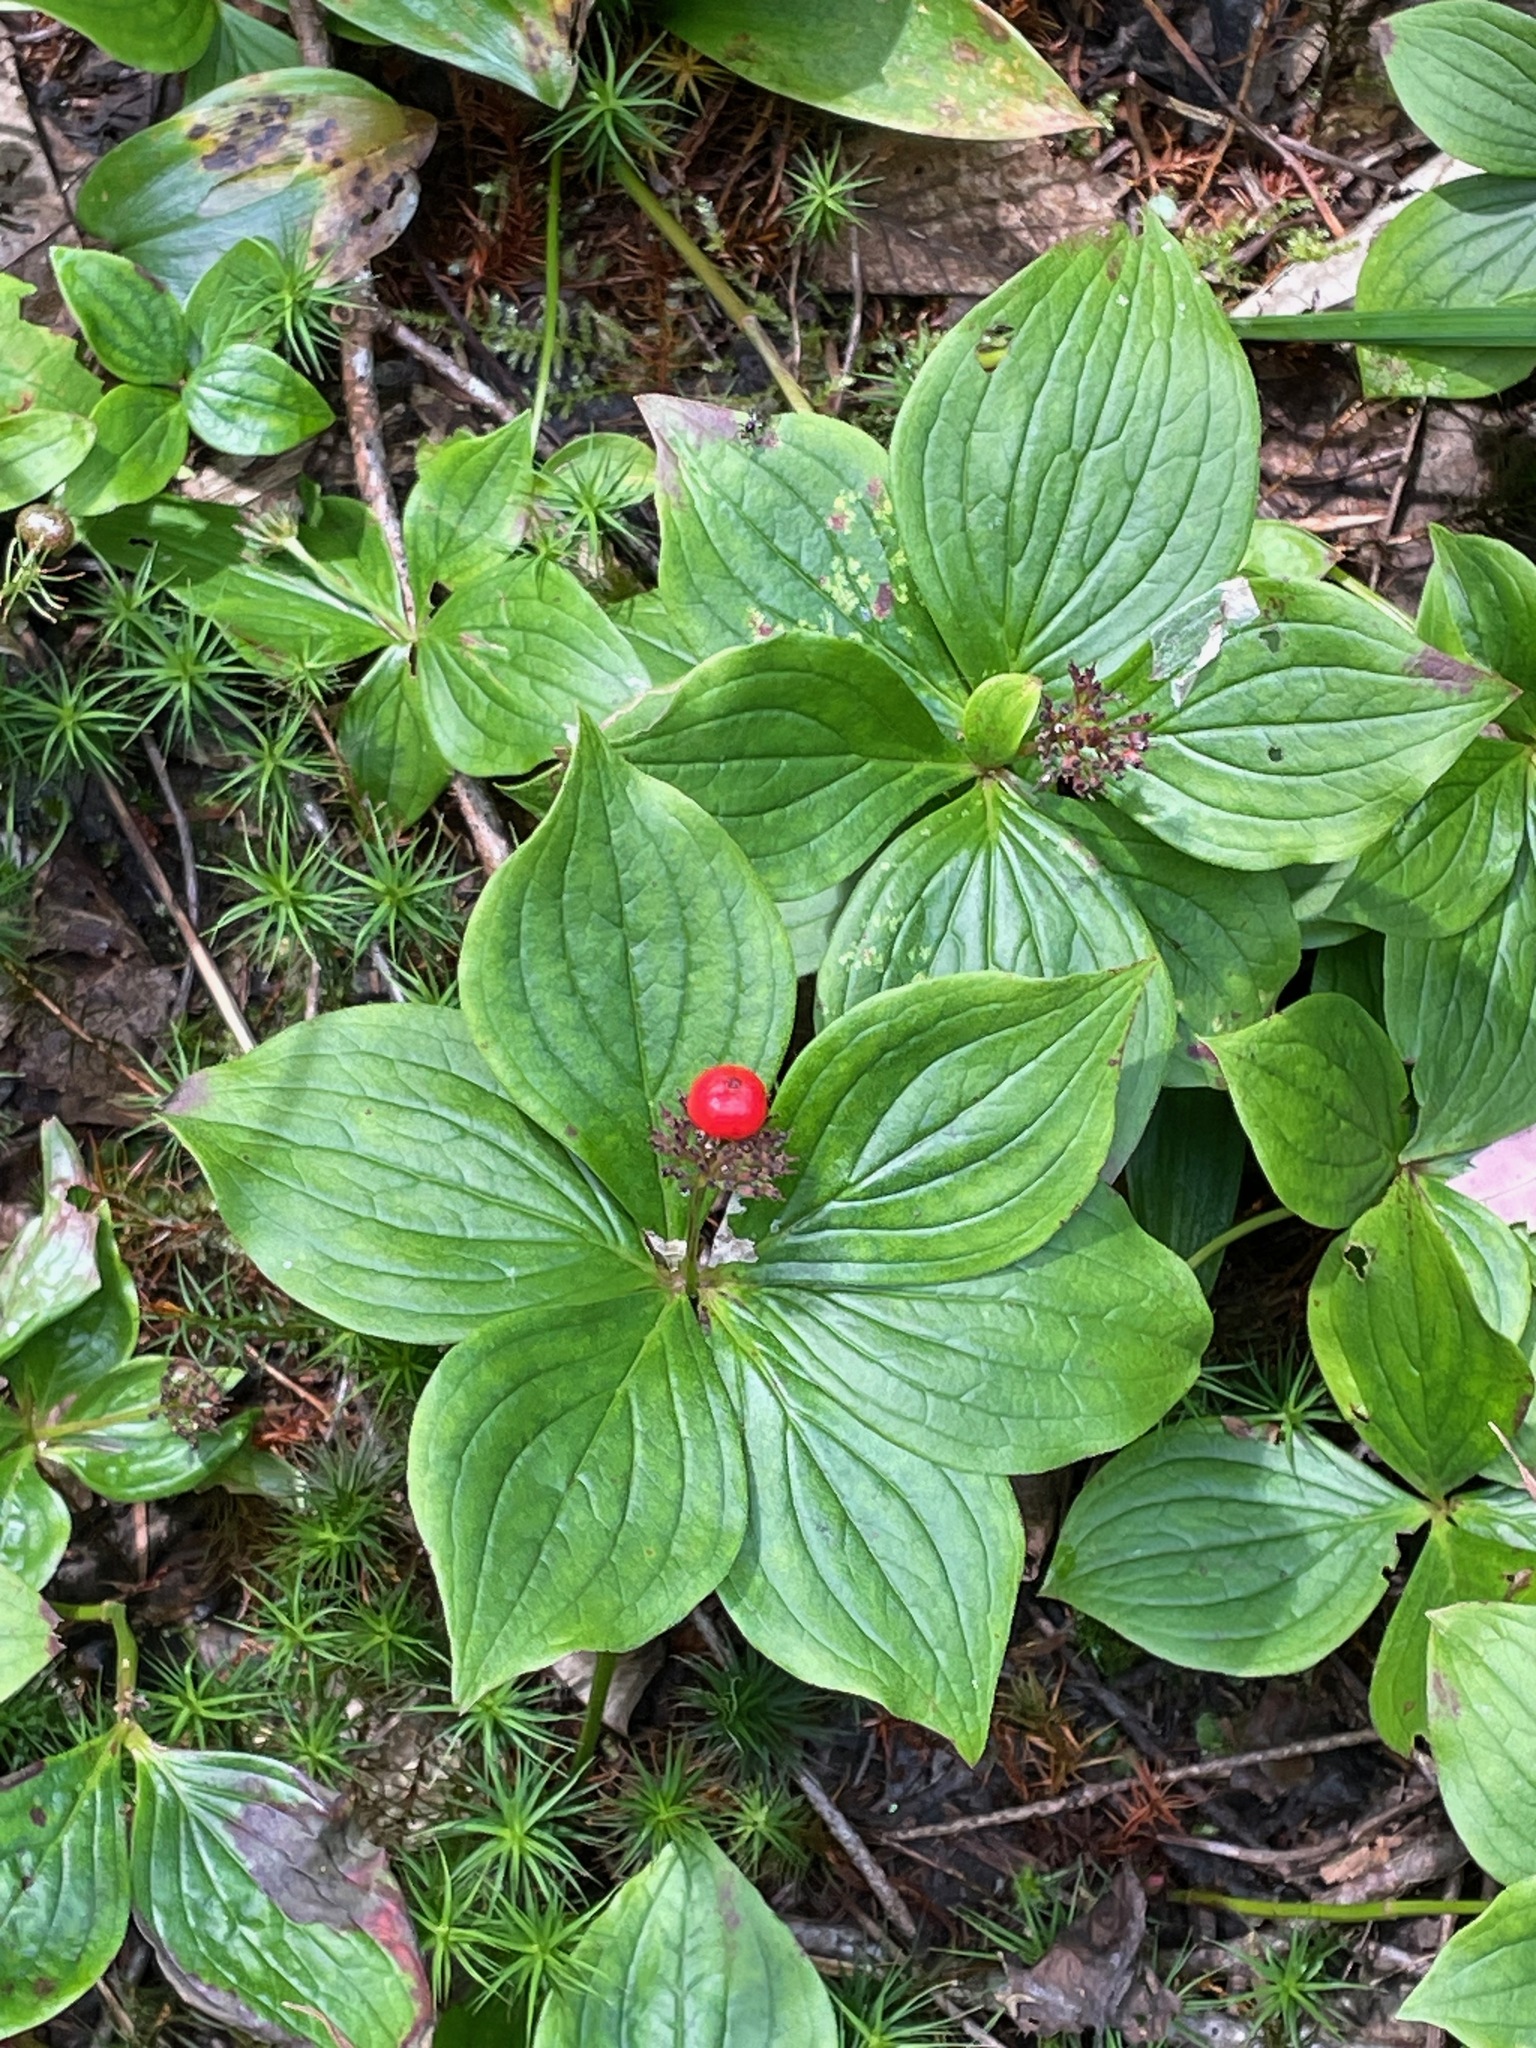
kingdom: Plantae
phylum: Tracheophyta
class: Magnoliopsida
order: Cornales
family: Cornaceae
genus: Cornus
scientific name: Cornus canadensis
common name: Creeping dogwood
